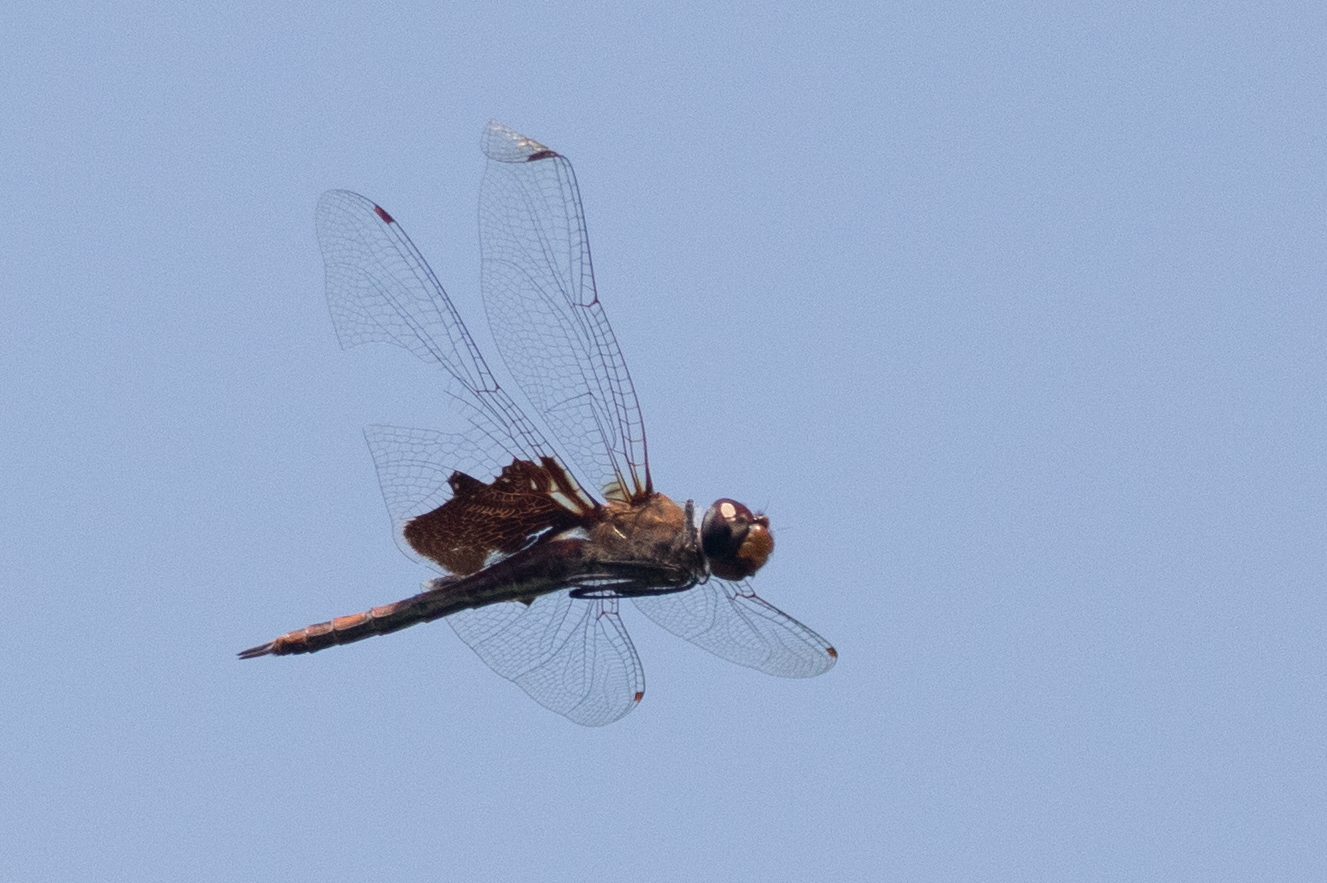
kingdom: Animalia
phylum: Arthropoda
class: Insecta
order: Odonata
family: Libellulidae
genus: Tramea
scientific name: Tramea carolina
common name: Carolina saddlebags
